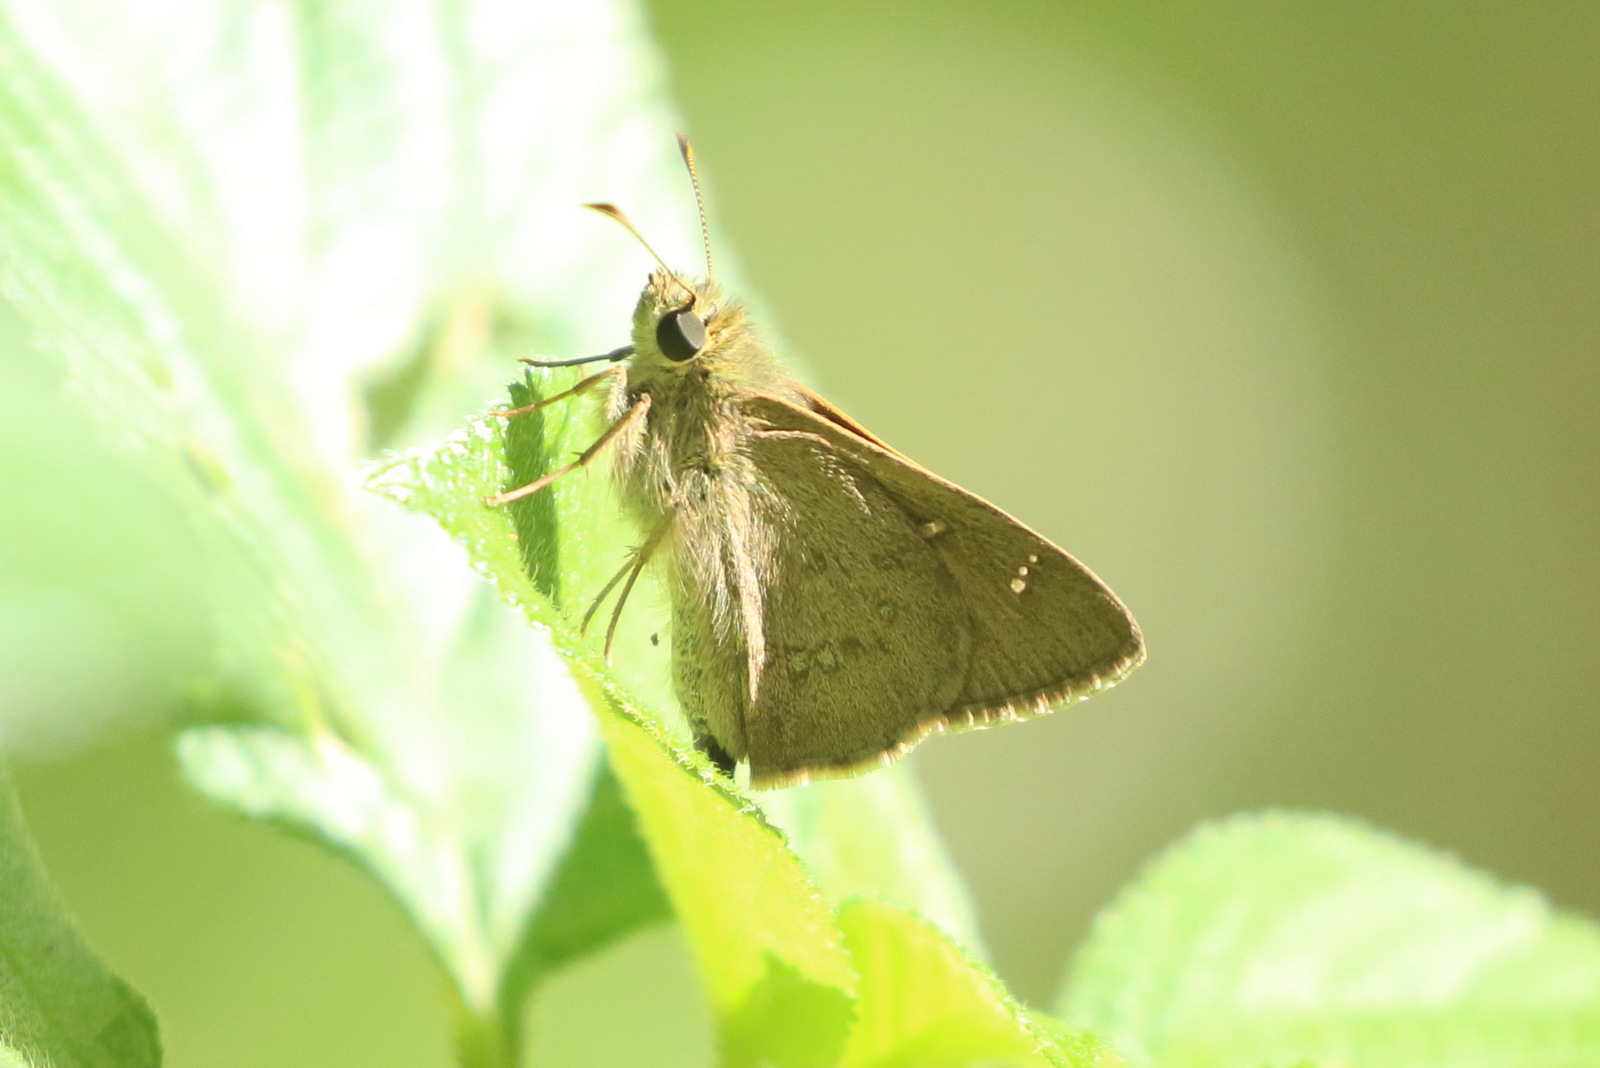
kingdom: Animalia
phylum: Arthropoda
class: Insecta
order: Lepidoptera
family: Hesperiidae
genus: Toxidia
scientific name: Toxidia
